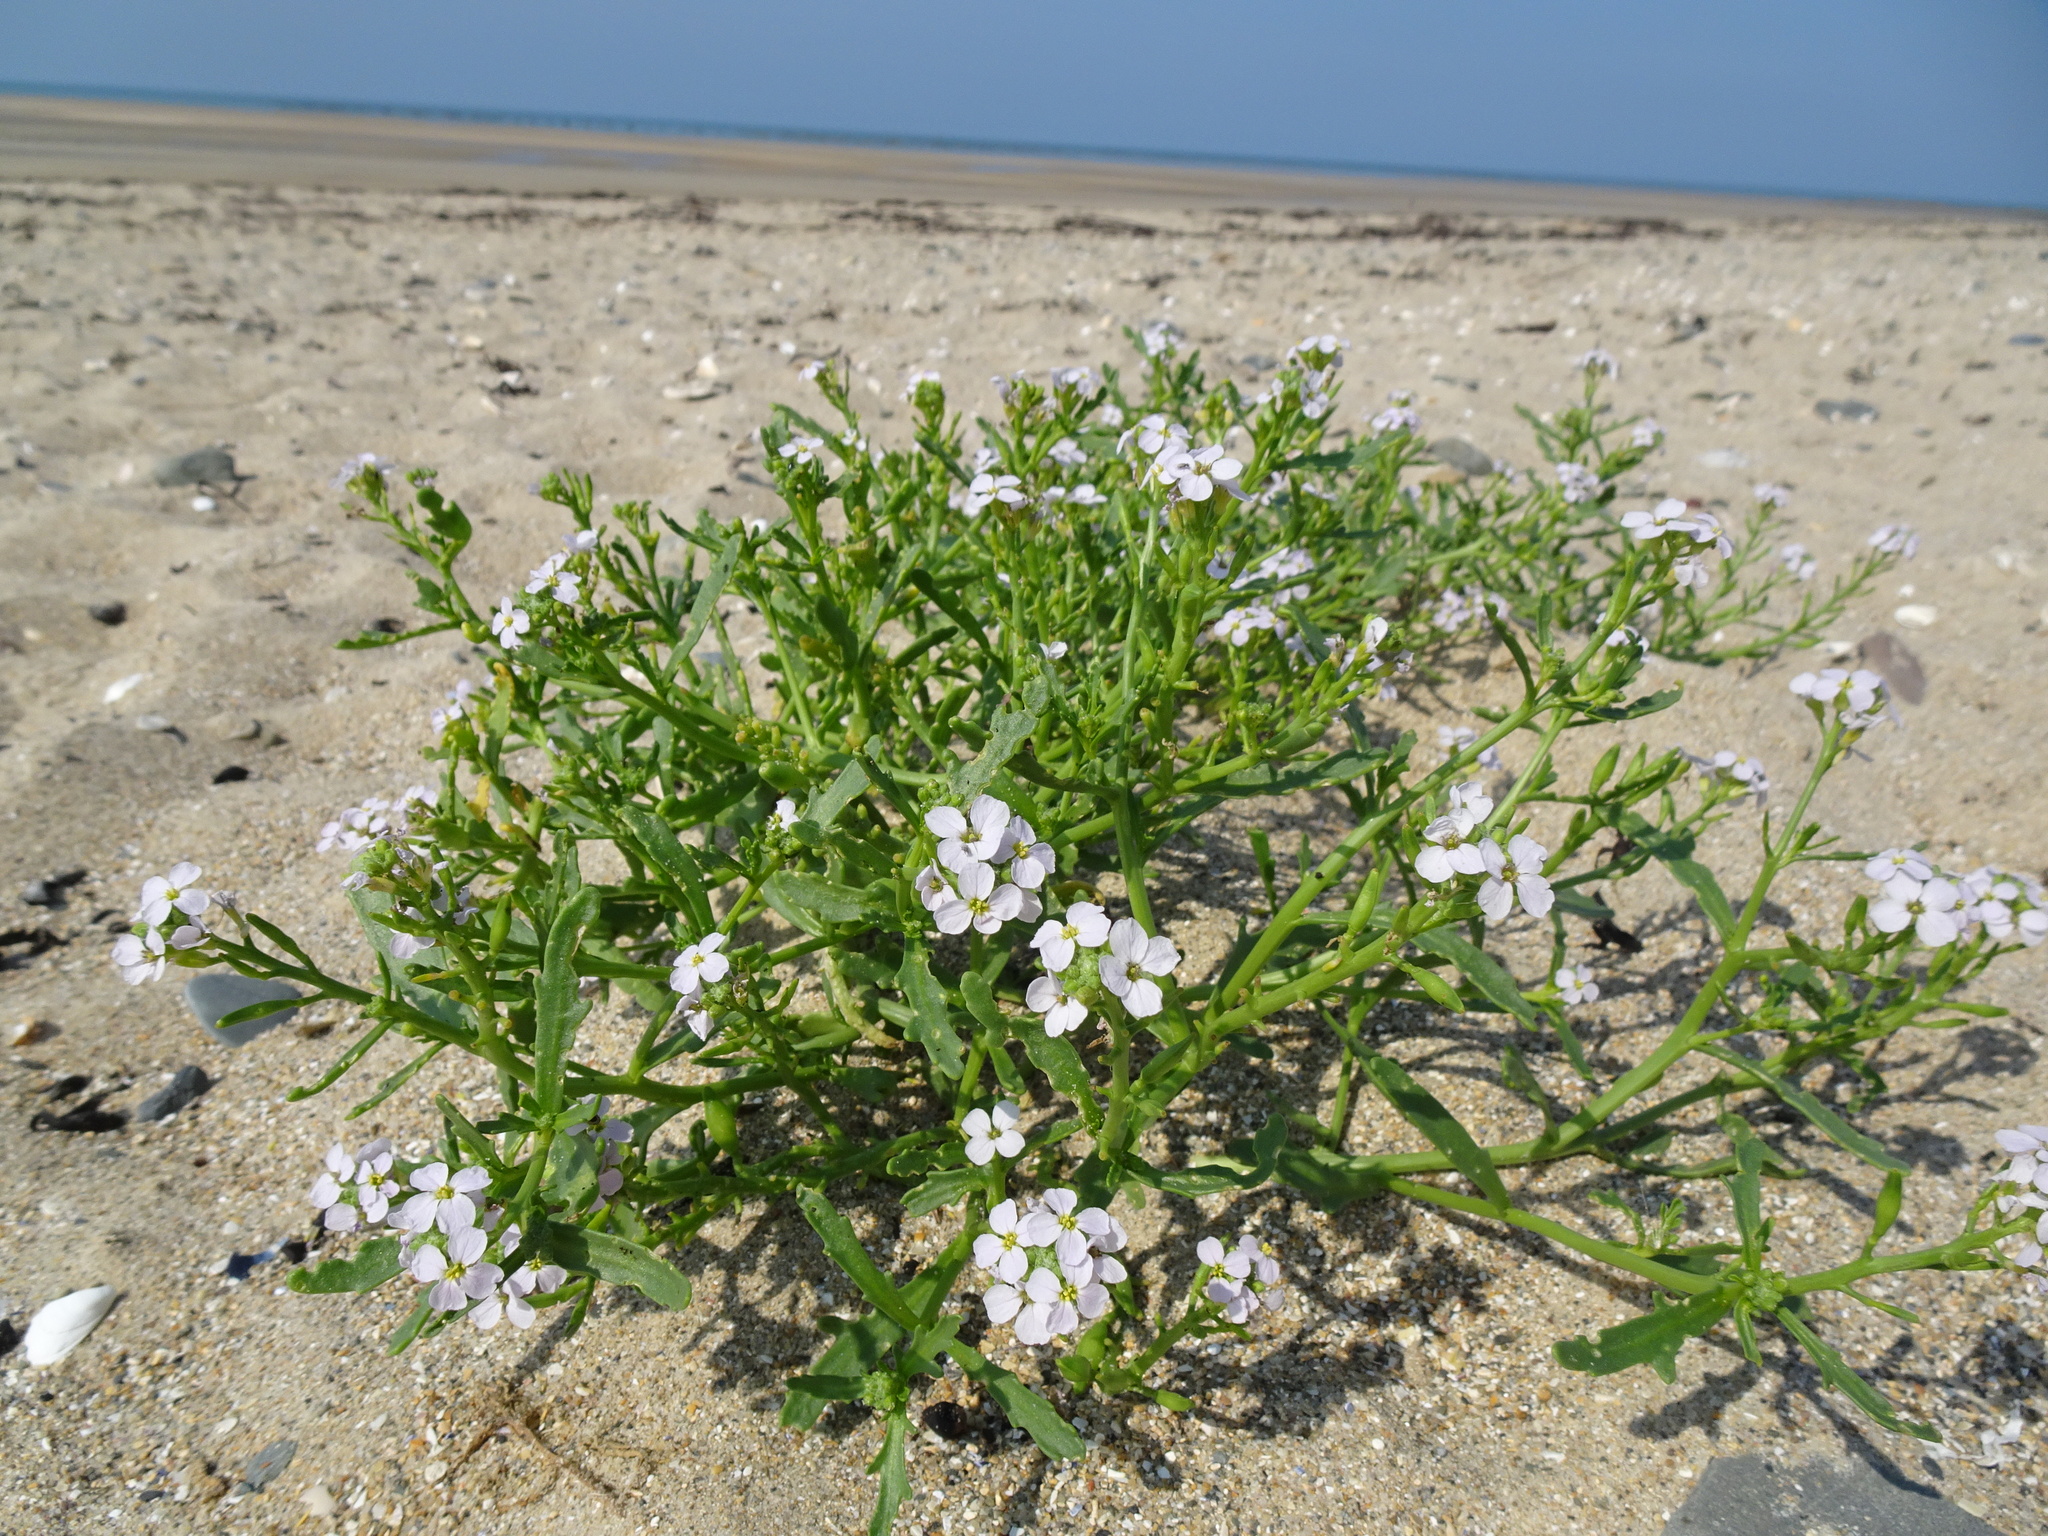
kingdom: Plantae
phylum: Tracheophyta
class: Magnoliopsida
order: Brassicales
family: Brassicaceae
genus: Cakile
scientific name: Cakile maritima
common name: Sea rocket
